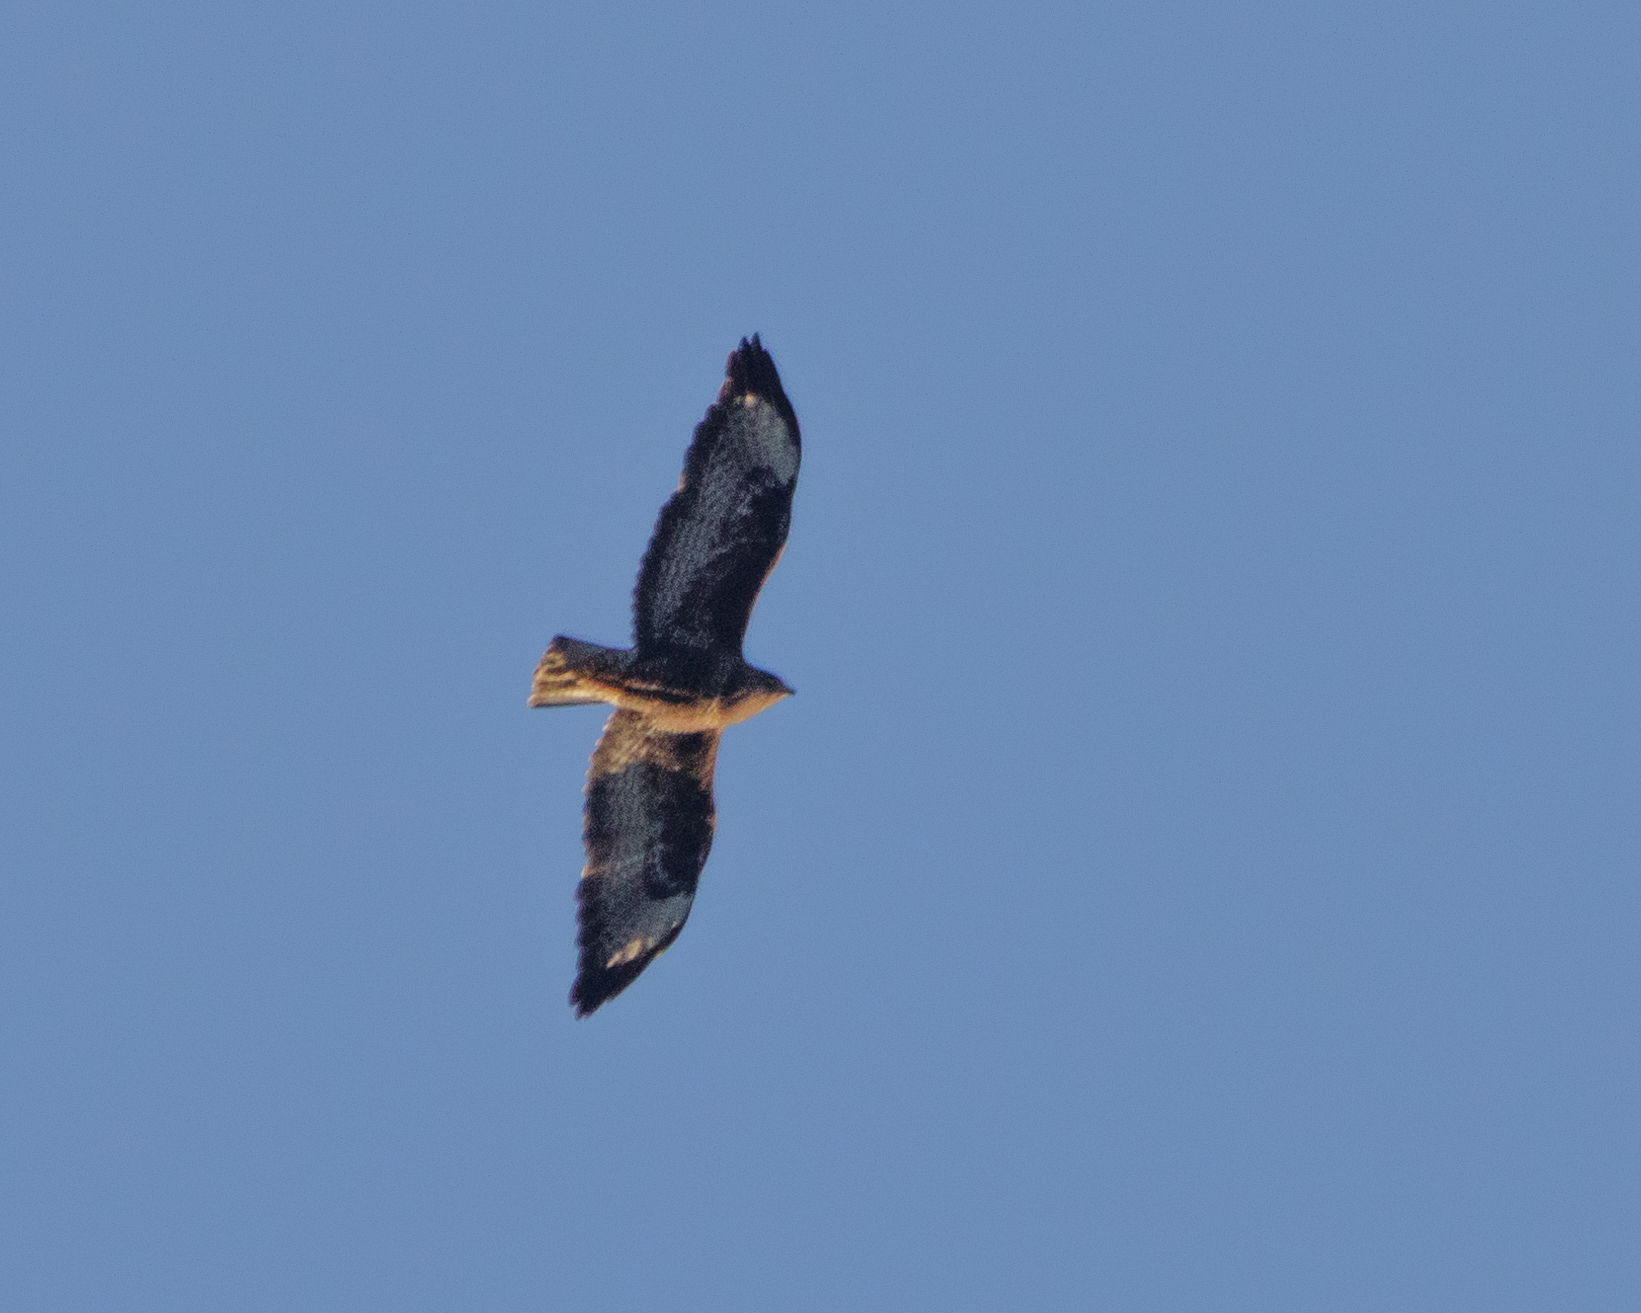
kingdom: Animalia
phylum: Chordata
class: Aves
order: Accipitriformes
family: Accipitridae
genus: Buteo
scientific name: Buteo buteo
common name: Common buzzard
